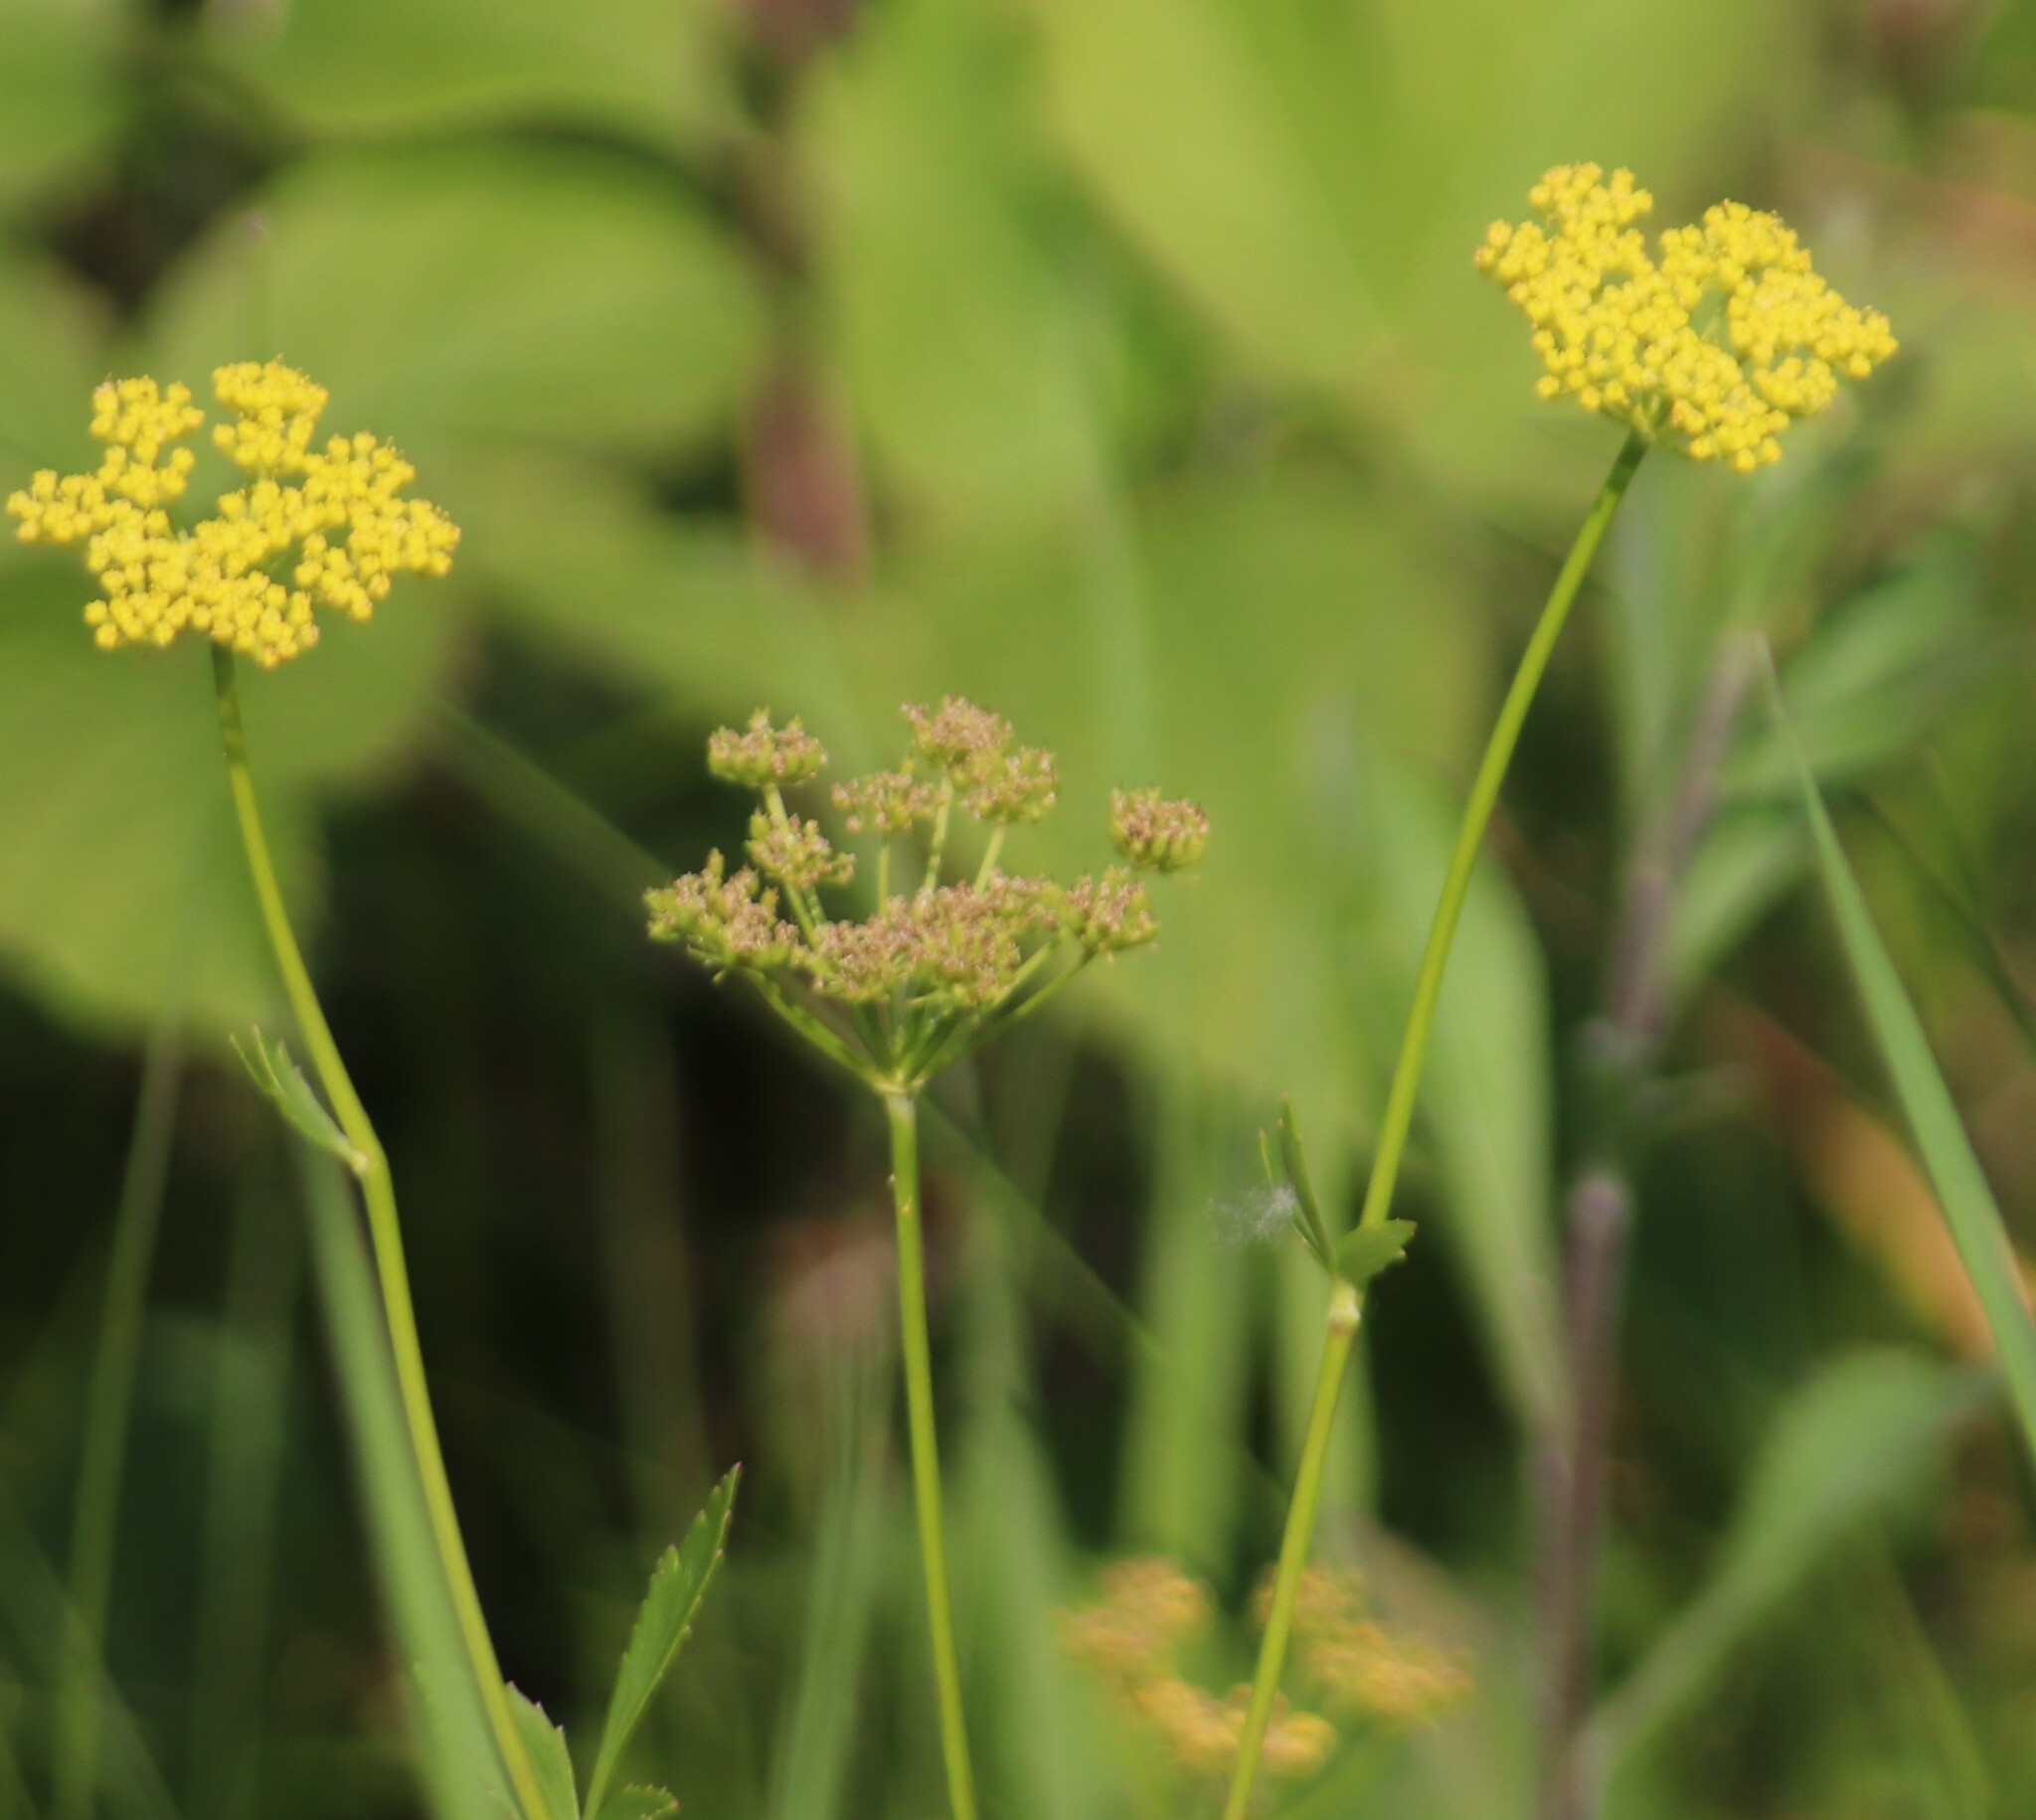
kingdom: Plantae
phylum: Tracheophyta
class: Magnoliopsida
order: Apiales
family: Apiaceae
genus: Zizia
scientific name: Zizia aptera
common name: Heart-leaved alexanders
